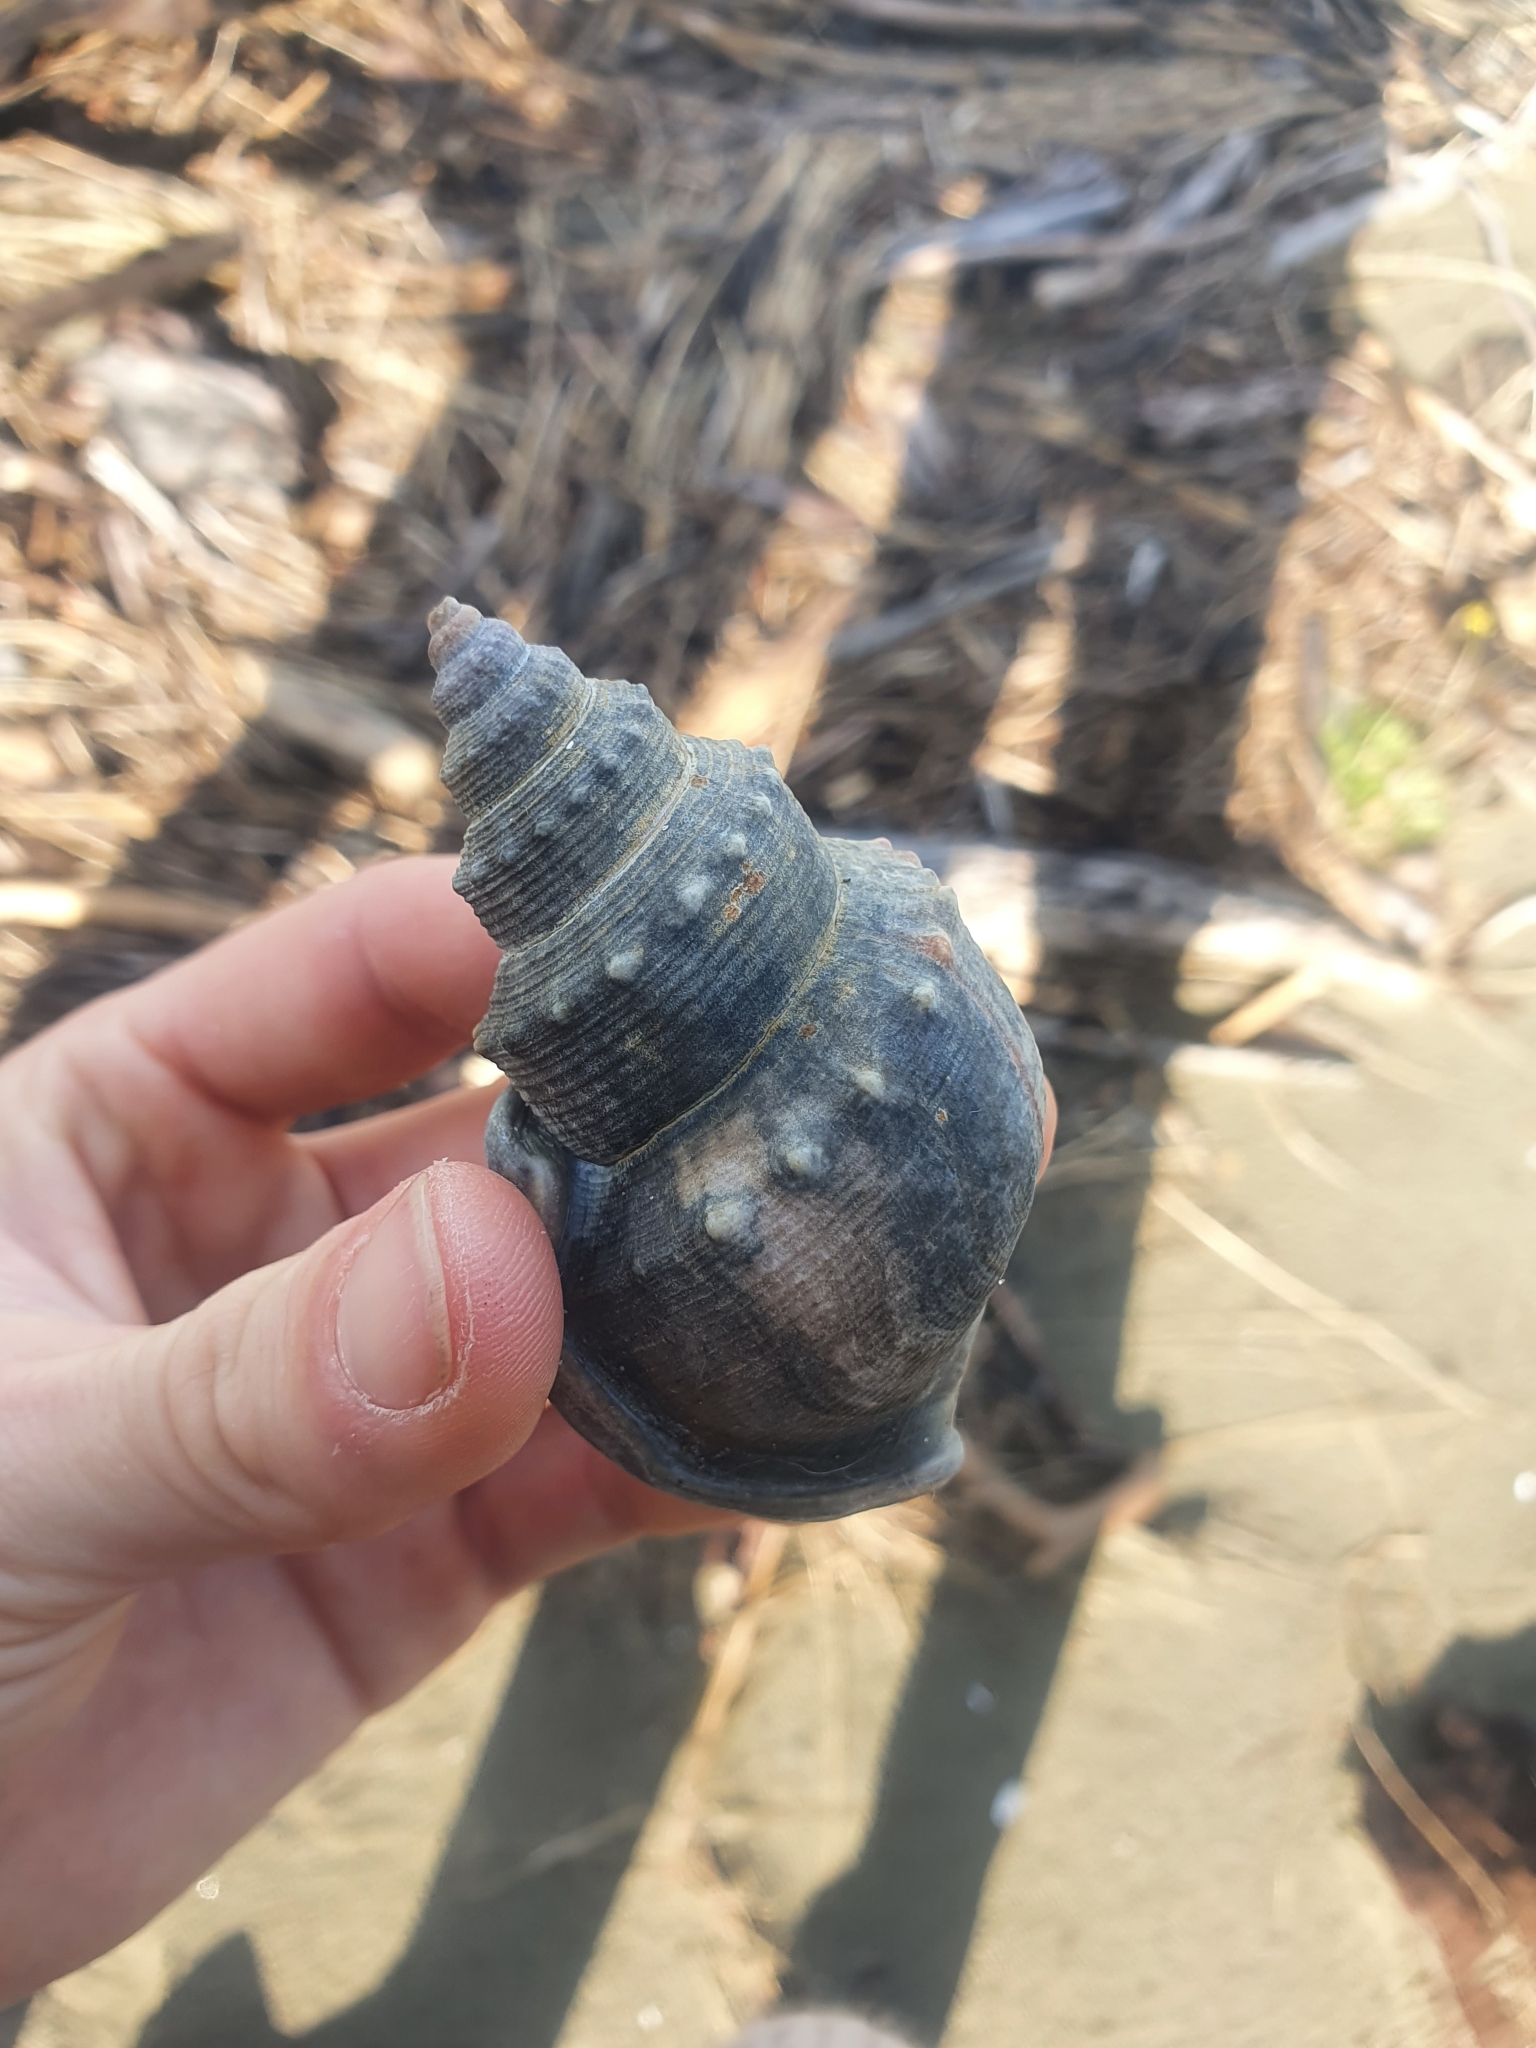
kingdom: Animalia
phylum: Mollusca
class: Gastropoda
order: Littorinimorpha
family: Struthiolariidae
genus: Struthiolaria
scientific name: Struthiolaria papulosa
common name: Large ostrich foot
